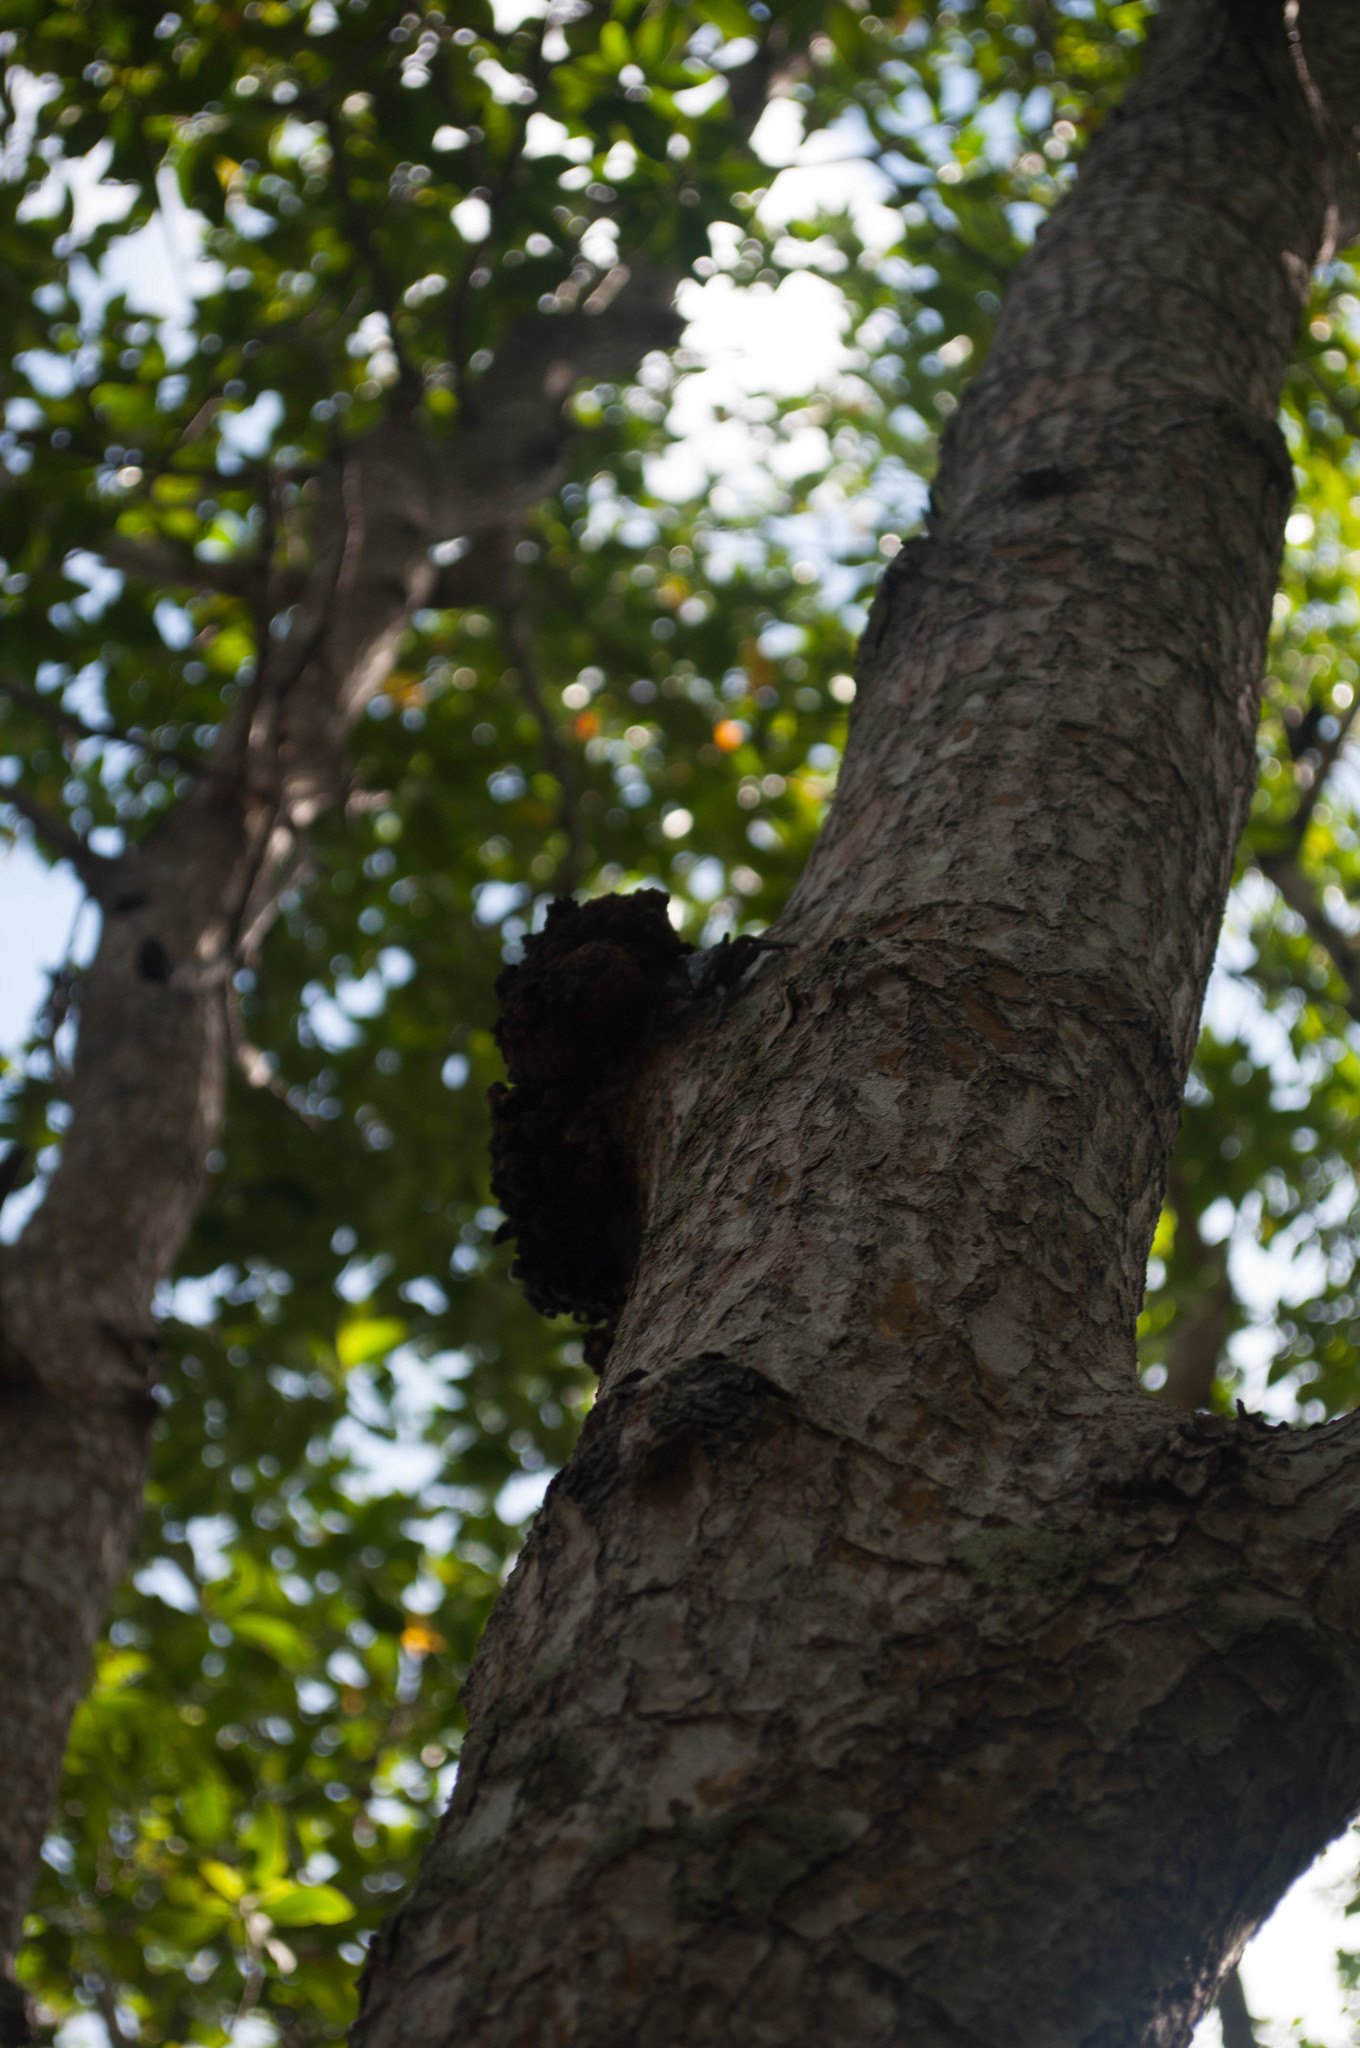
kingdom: Animalia
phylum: Arthropoda
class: Malacostraca
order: Decapoda
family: Sesarmidae
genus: Aratus
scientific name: Aratus pisonii
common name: Mangrove crab
